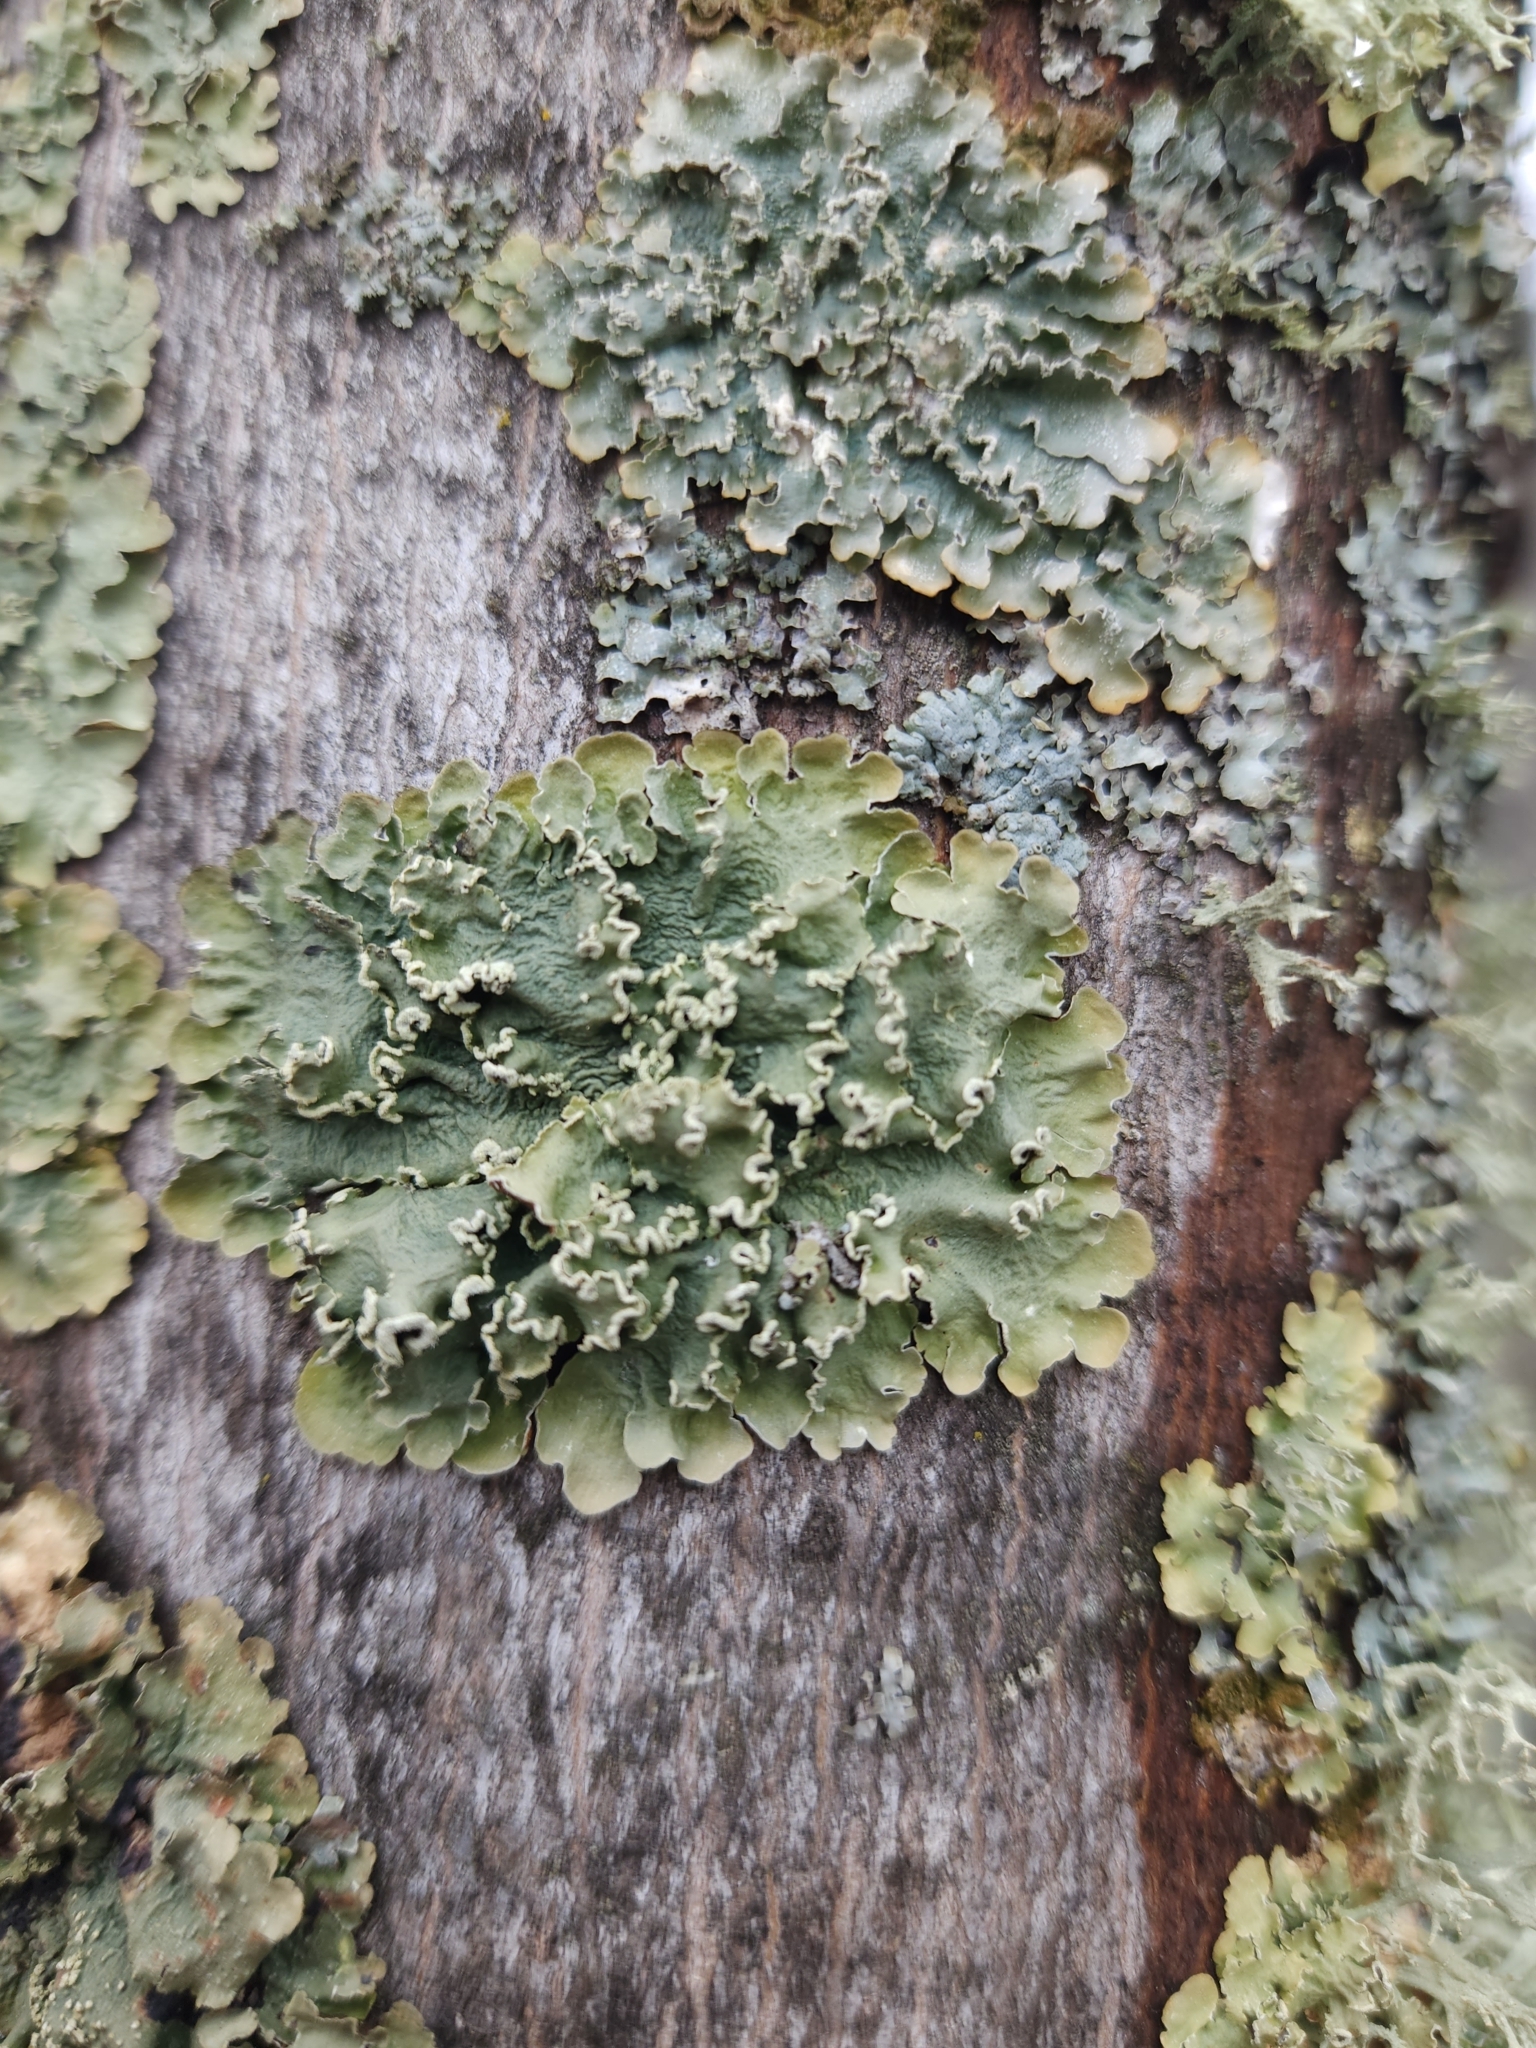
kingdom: Fungi
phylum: Ascomycota
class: Lecanoromycetes
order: Lecanorales
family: Parmeliaceae
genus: Flavopunctelia
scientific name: Flavopunctelia soredica
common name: Powder-edged speckled greenshield
